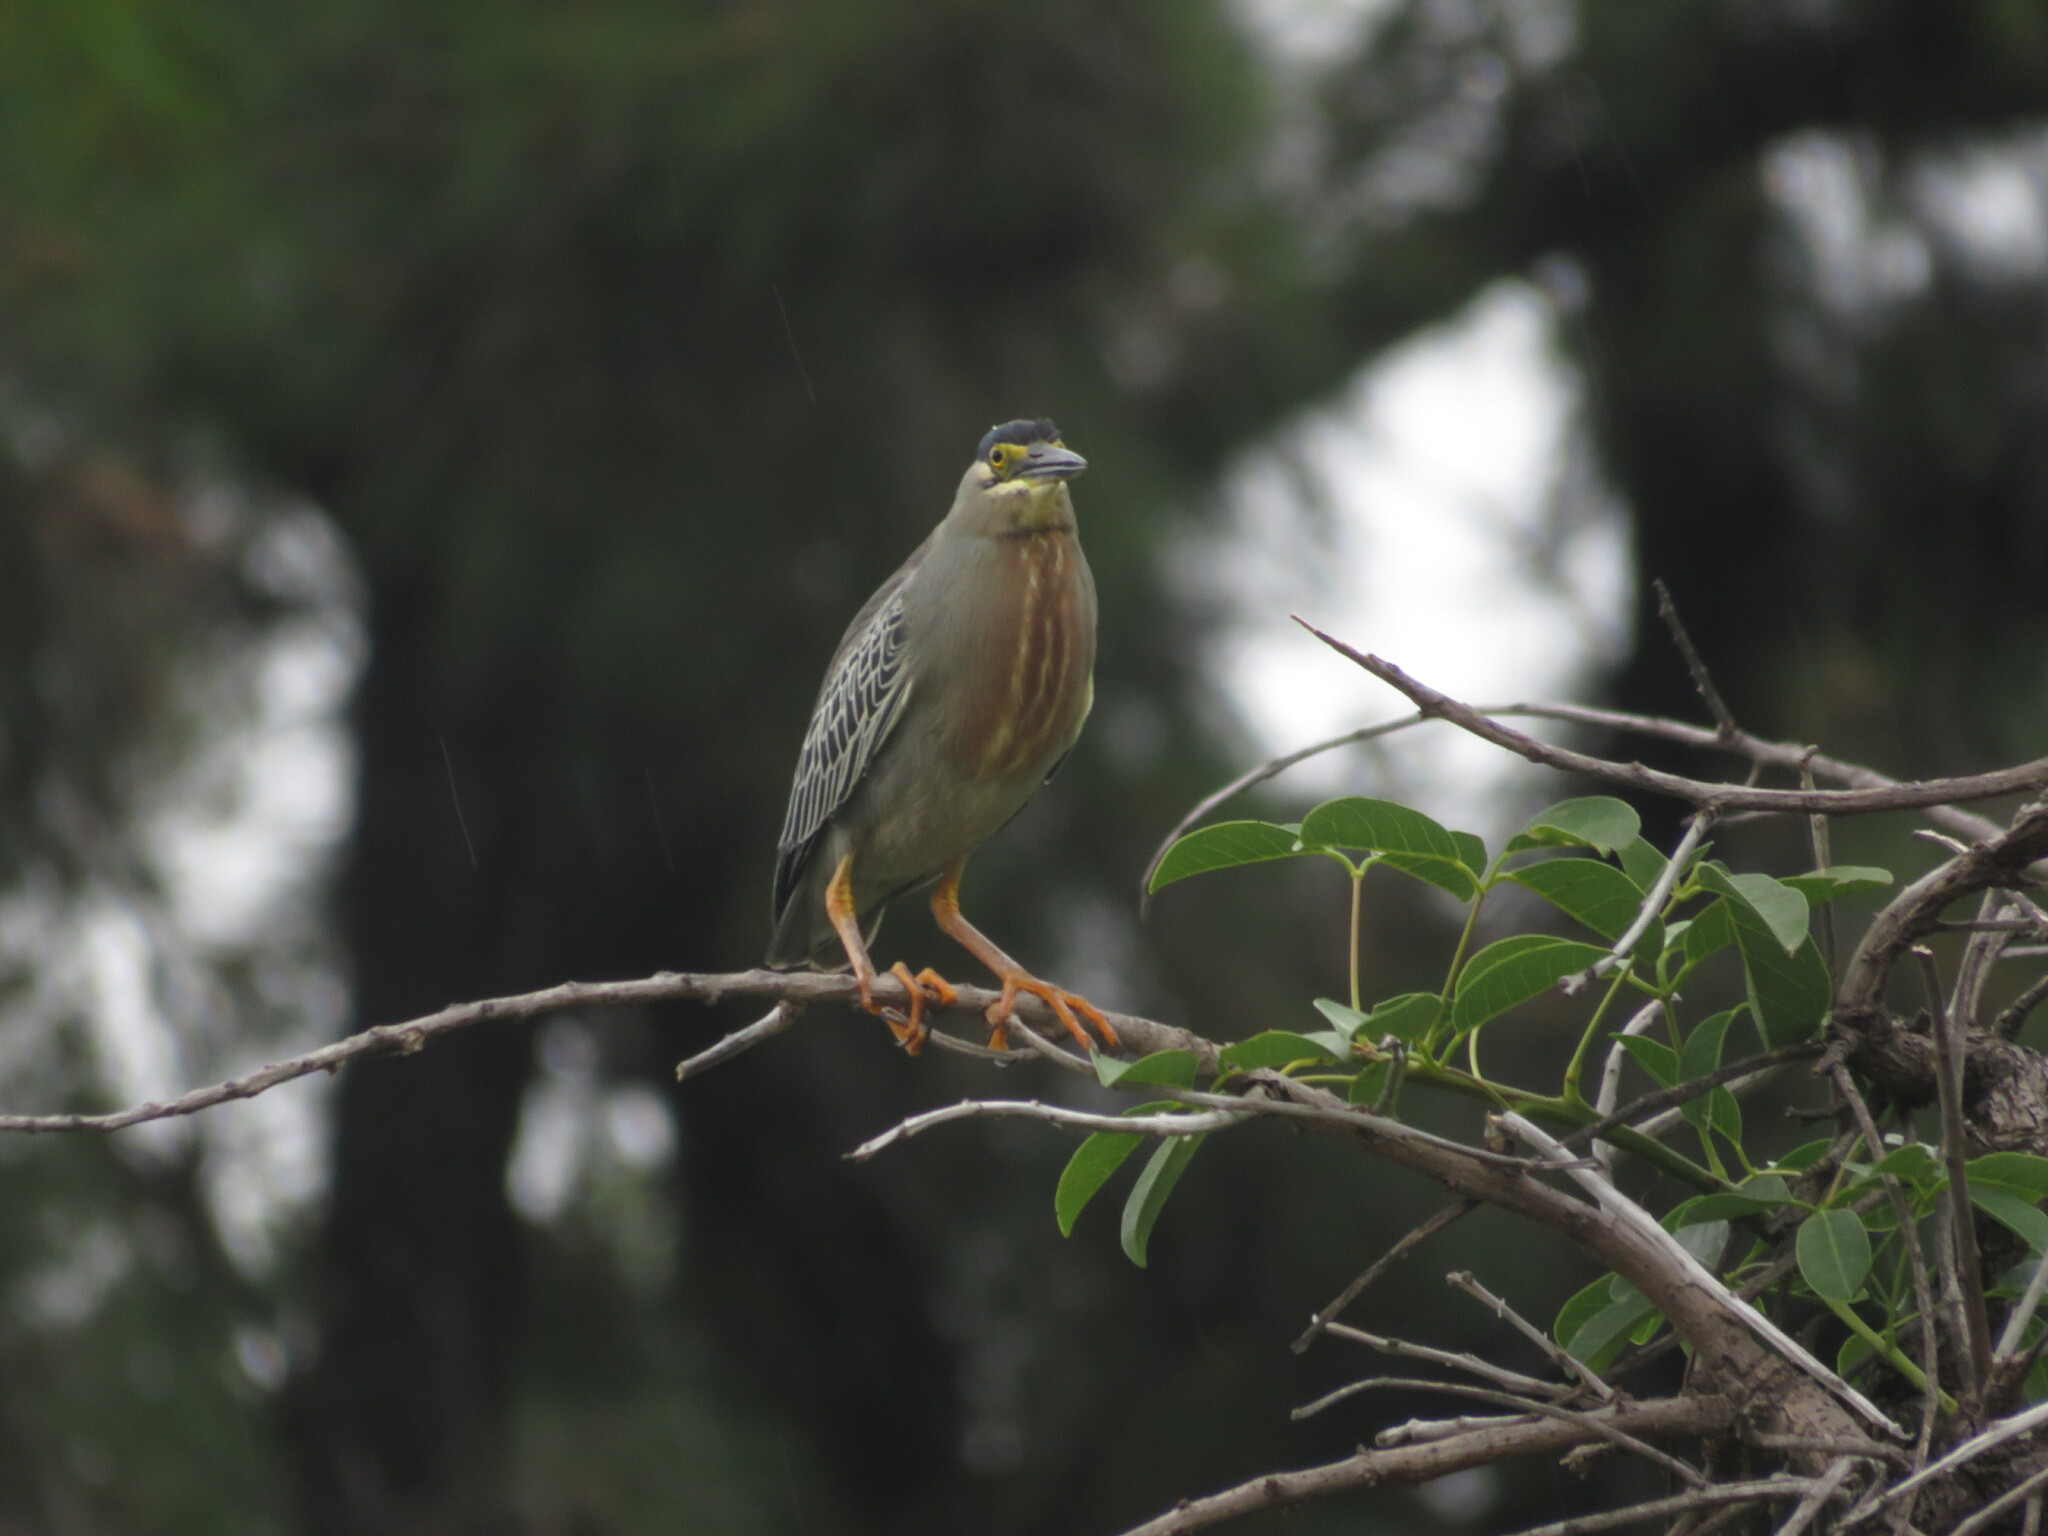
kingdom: Animalia
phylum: Chordata
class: Aves
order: Pelecaniformes
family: Ardeidae
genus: Butorides
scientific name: Butorides striata
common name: Striated heron
